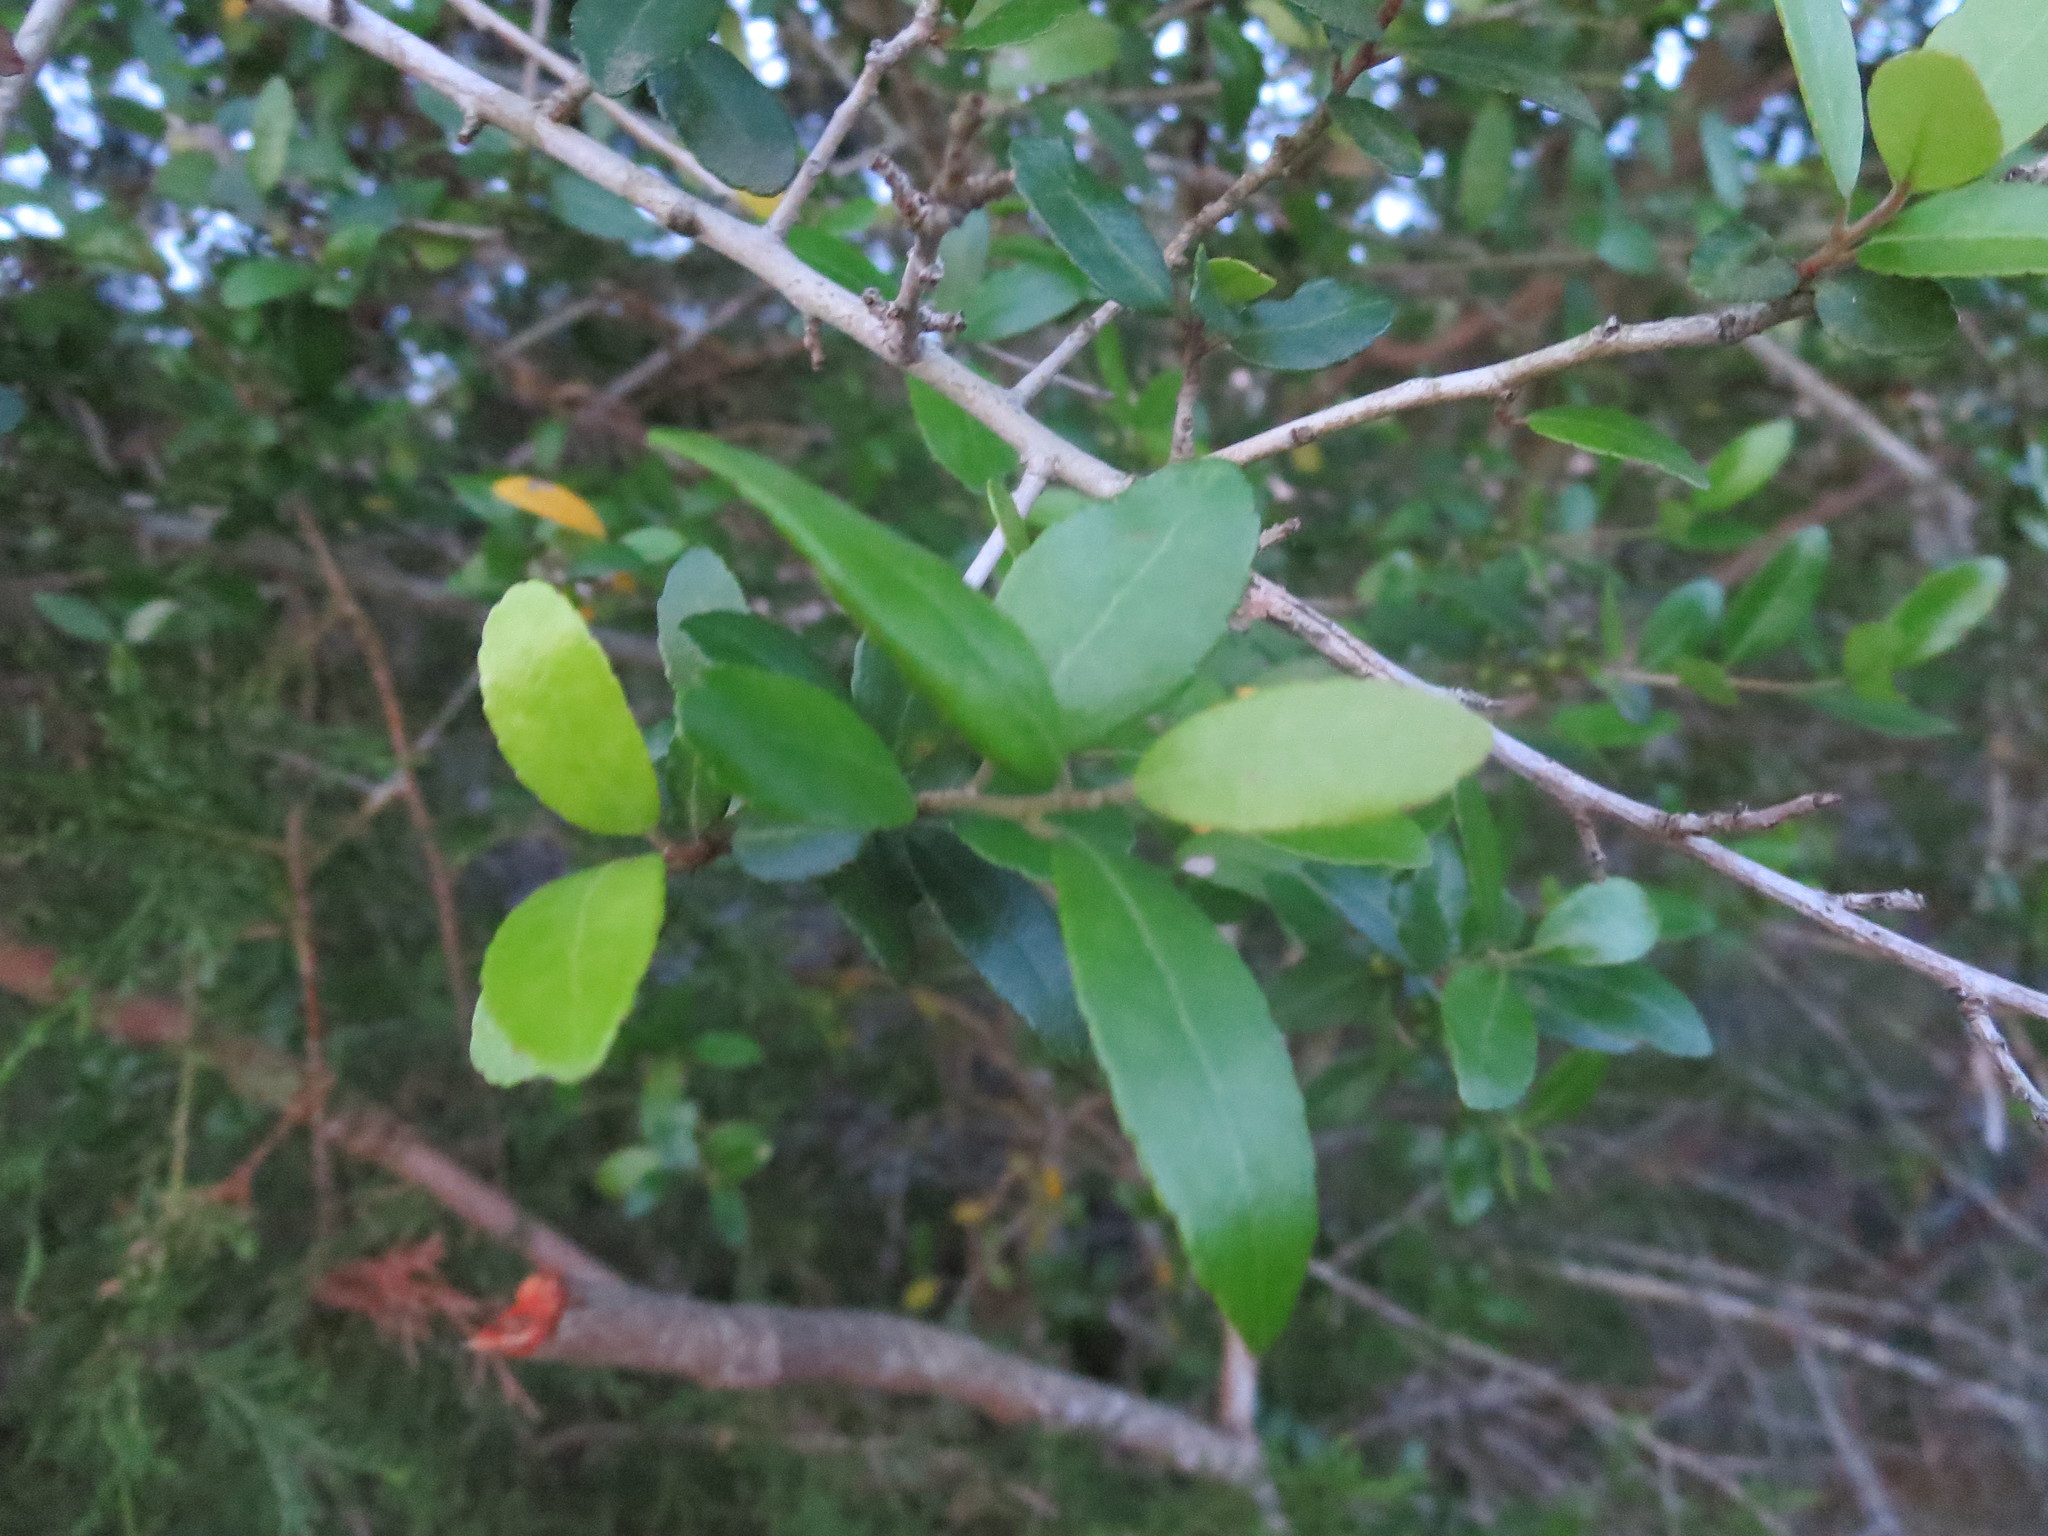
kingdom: Plantae
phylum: Tracheophyta
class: Magnoliopsida
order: Aquifoliales
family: Aquifoliaceae
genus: Ilex
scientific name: Ilex vomitoria
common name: Yaupon holly
